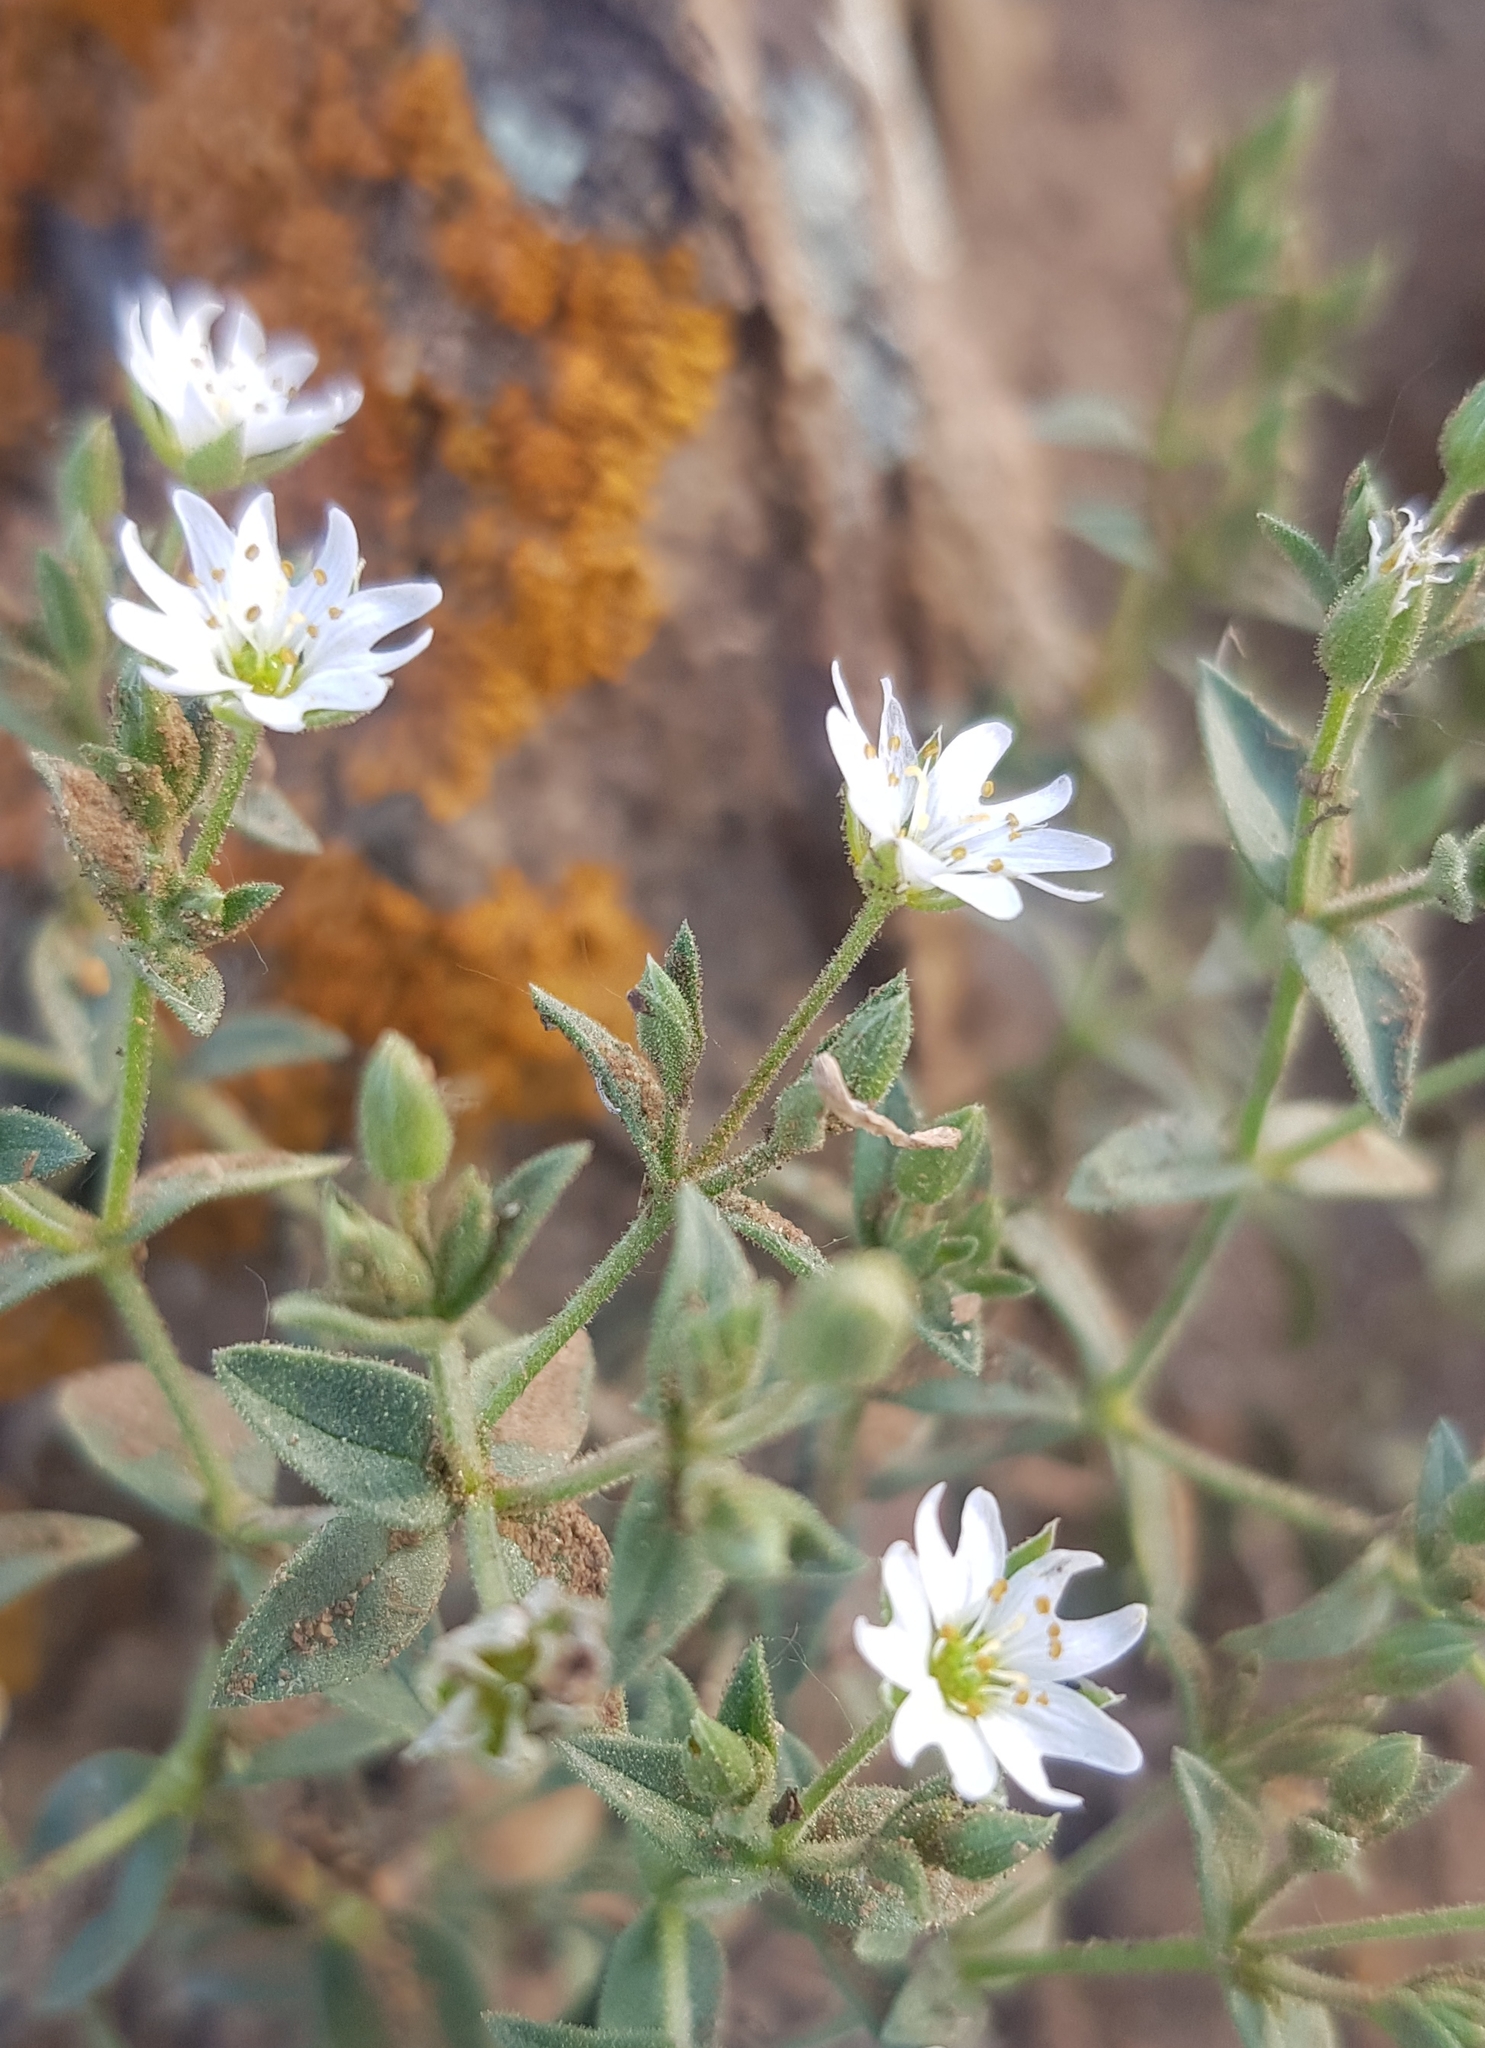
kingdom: Plantae
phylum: Tracheophyta
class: Magnoliopsida
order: Caryophyllales
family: Caryophyllaceae
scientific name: Caryophyllaceae
